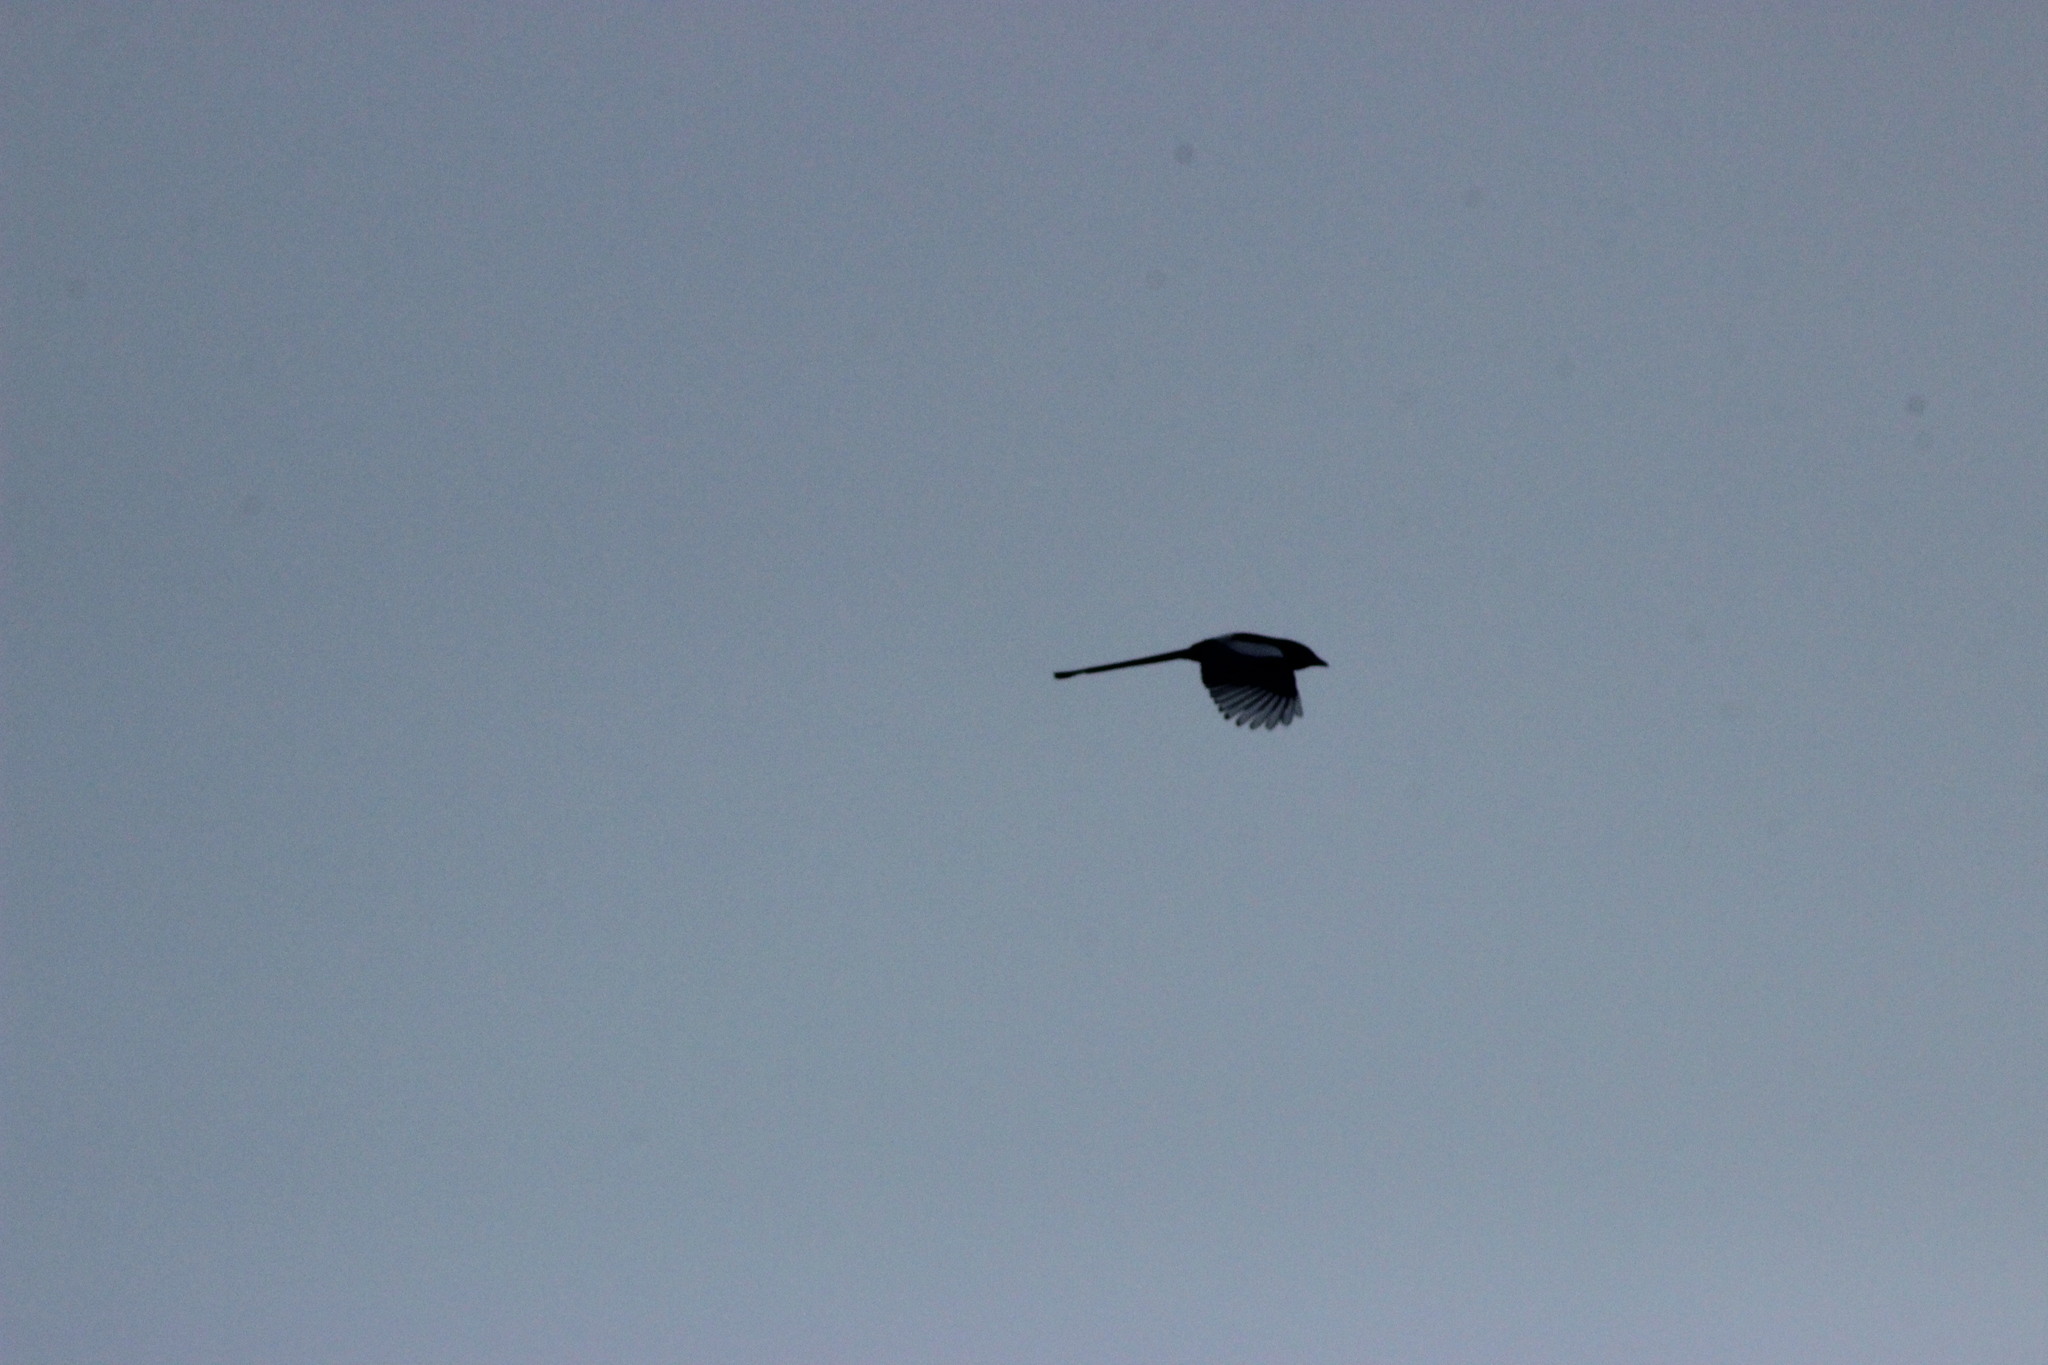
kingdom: Animalia
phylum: Chordata
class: Aves
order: Passeriformes
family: Corvidae
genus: Pica
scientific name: Pica pica
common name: Eurasian magpie
